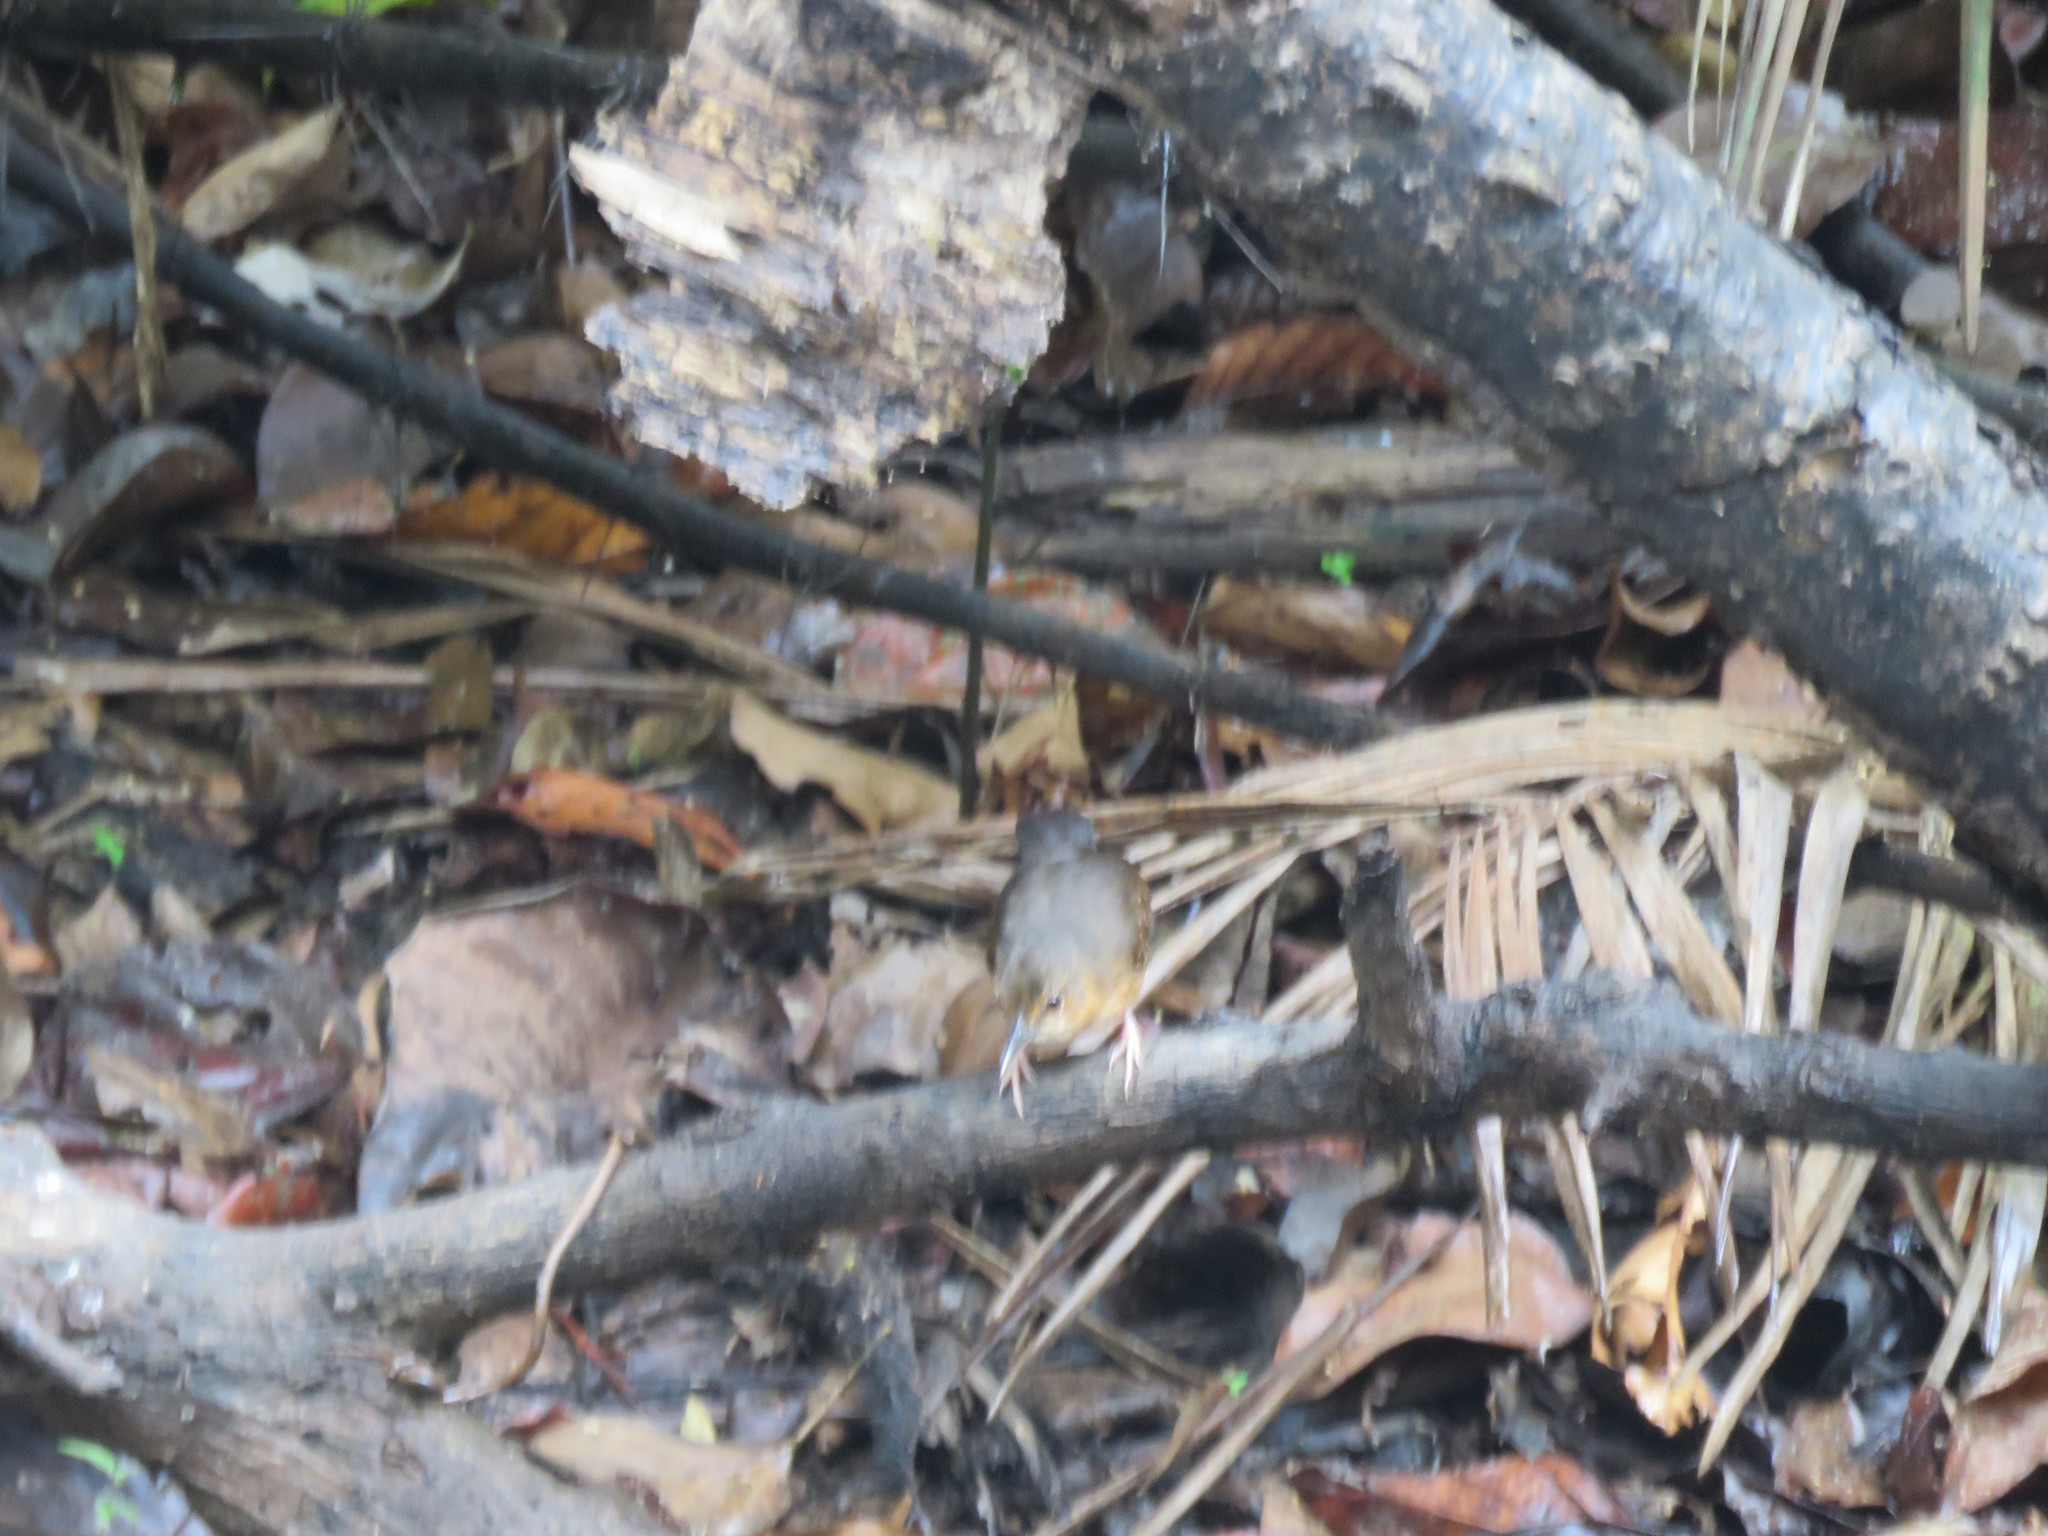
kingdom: Animalia
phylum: Chordata
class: Aves
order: Passeriformes
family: Thamnophilidae
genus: Sclateria
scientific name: Sclateria naevia
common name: Silvered antbird
